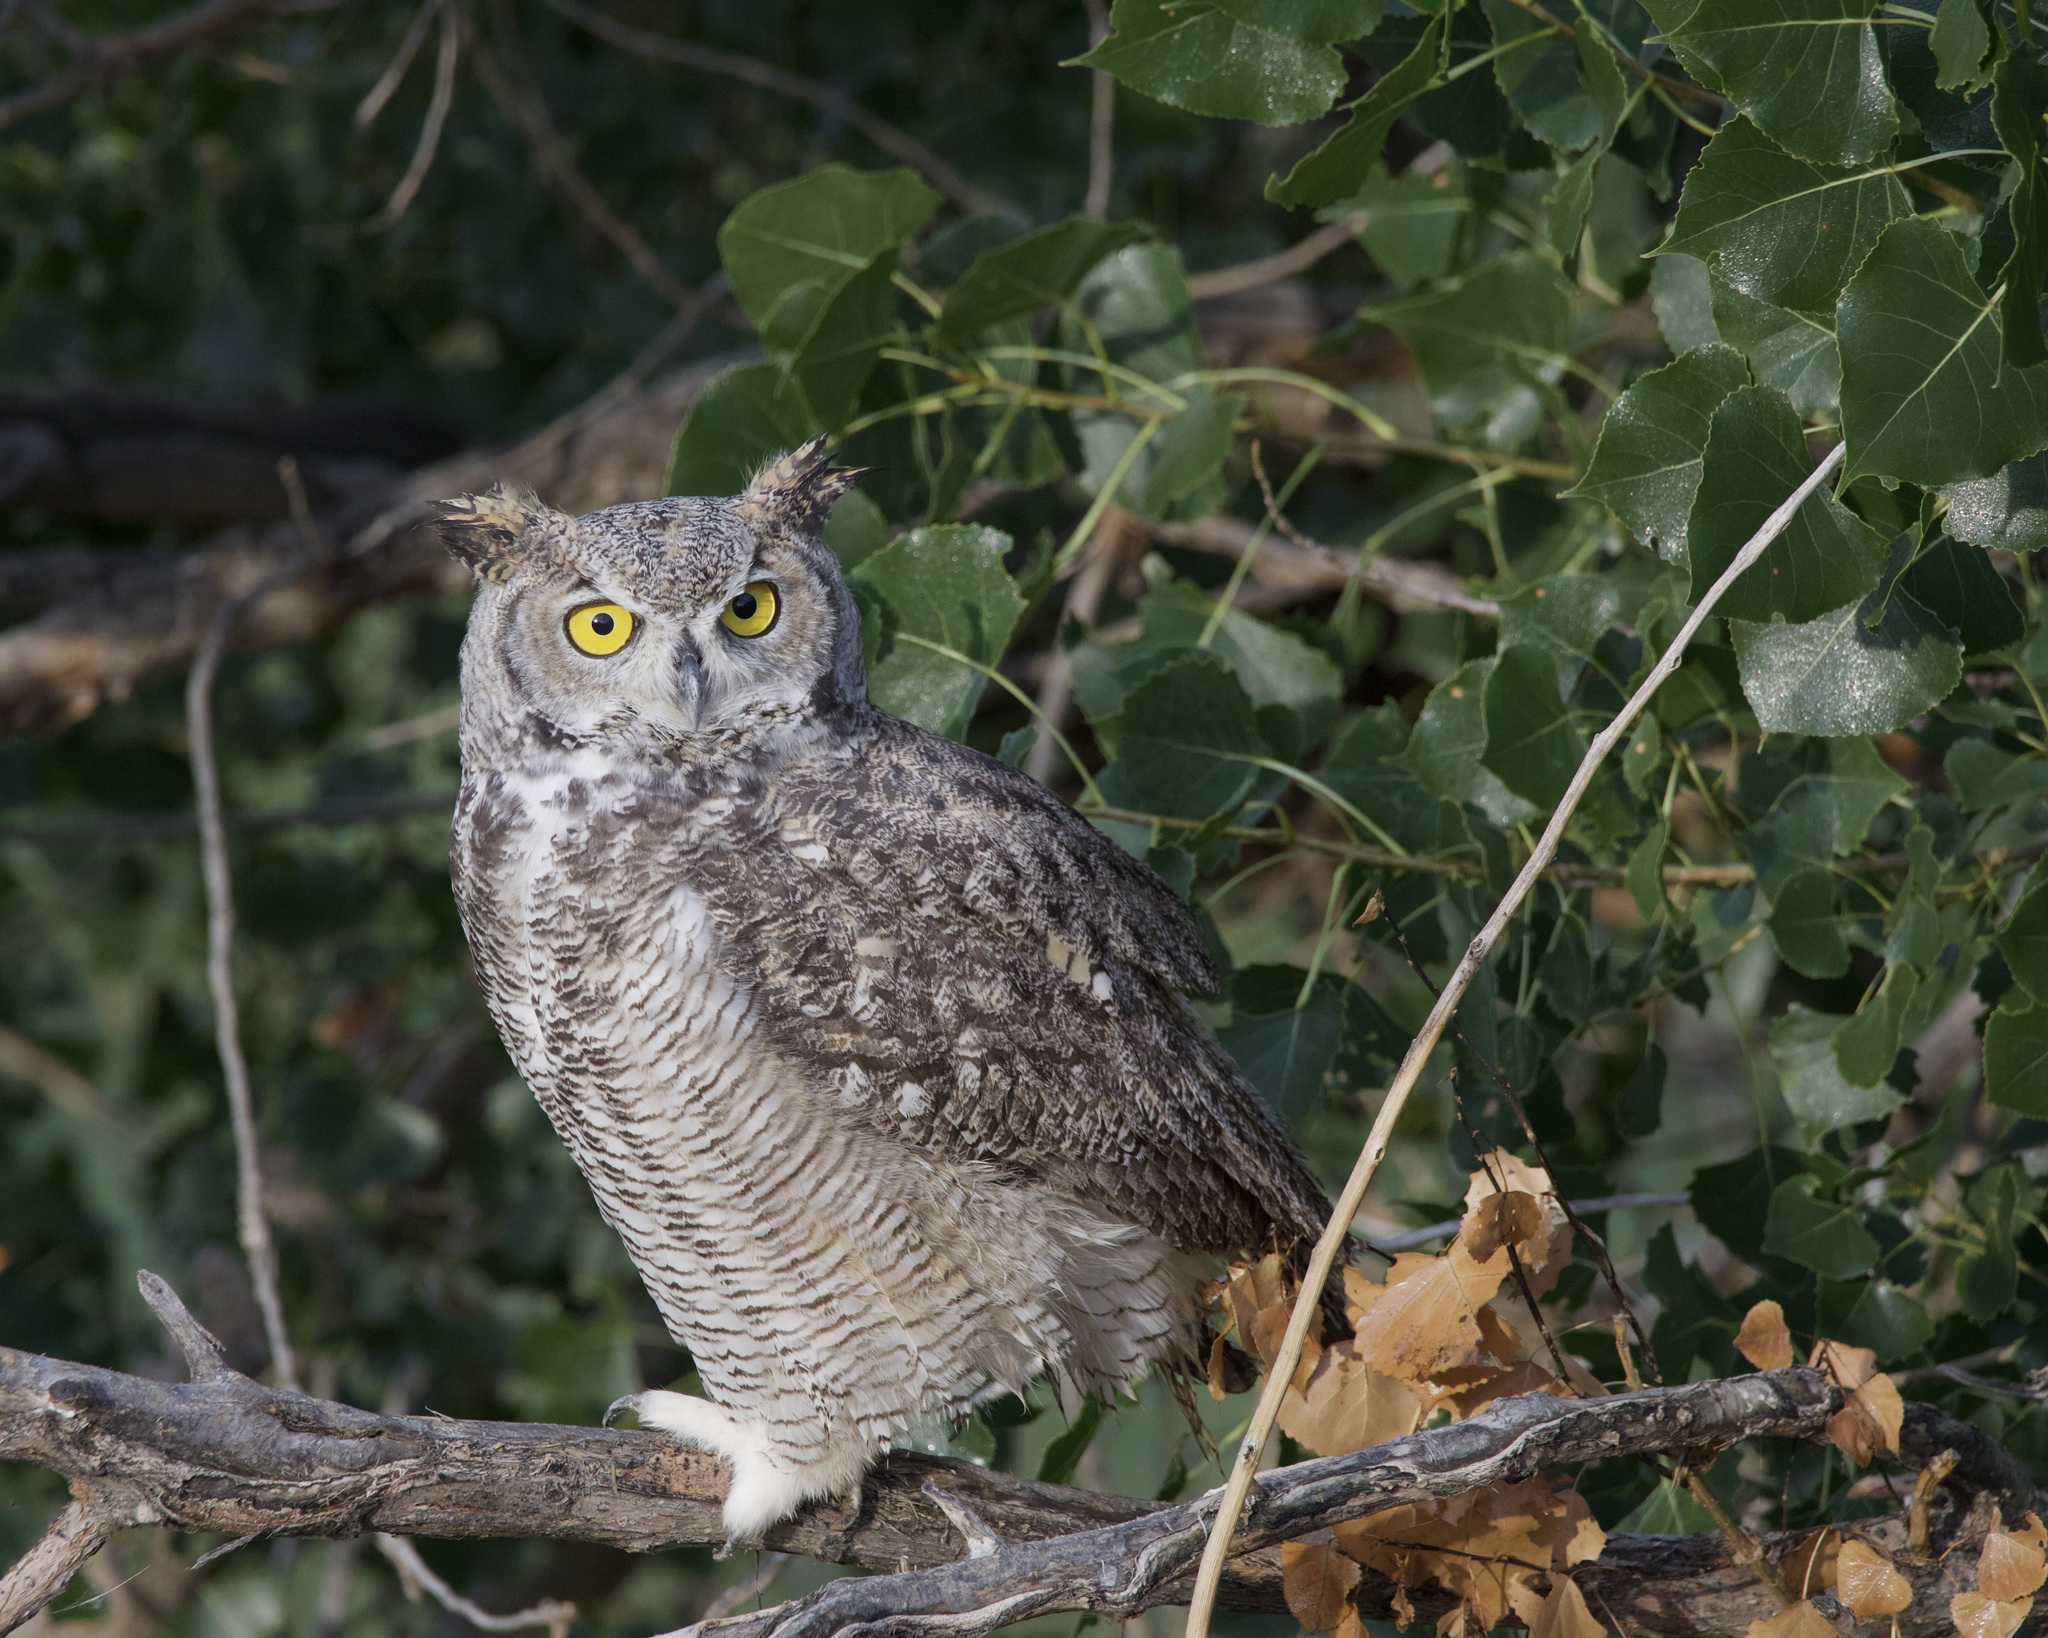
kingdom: Animalia
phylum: Chordata
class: Aves
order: Strigiformes
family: Strigidae
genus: Bubo
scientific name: Bubo virginianus
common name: Great horned owl
